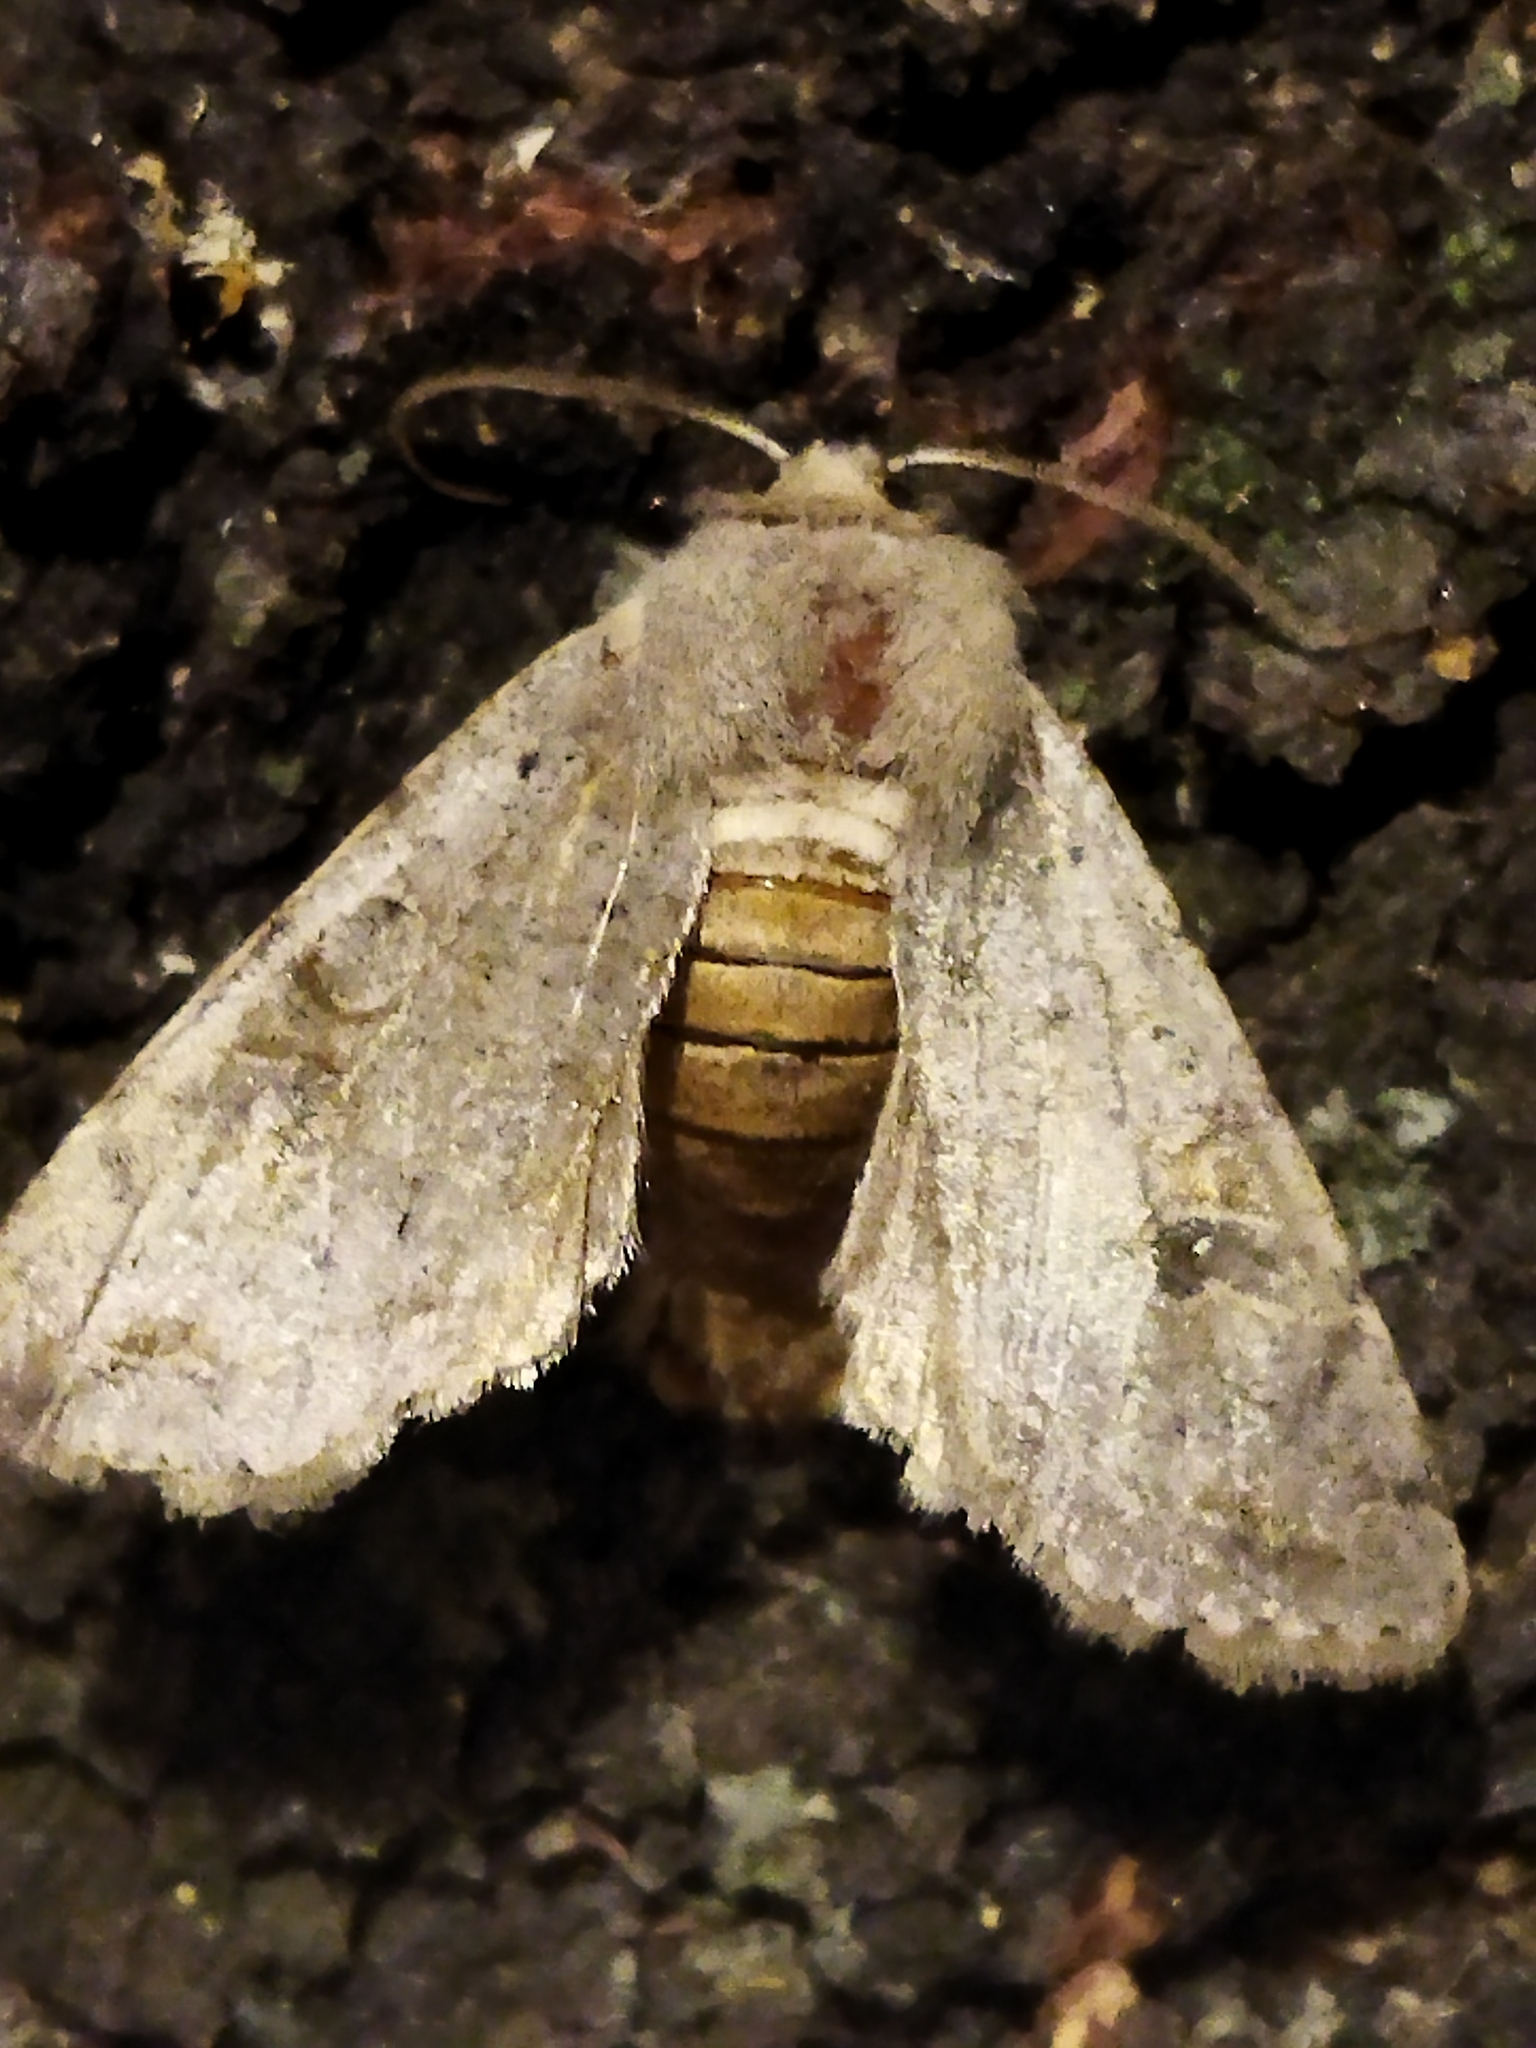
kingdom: Animalia
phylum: Arthropoda
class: Insecta
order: Lepidoptera
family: Noctuidae
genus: Orthosia
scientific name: Orthosia incerta
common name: Clouded drab
